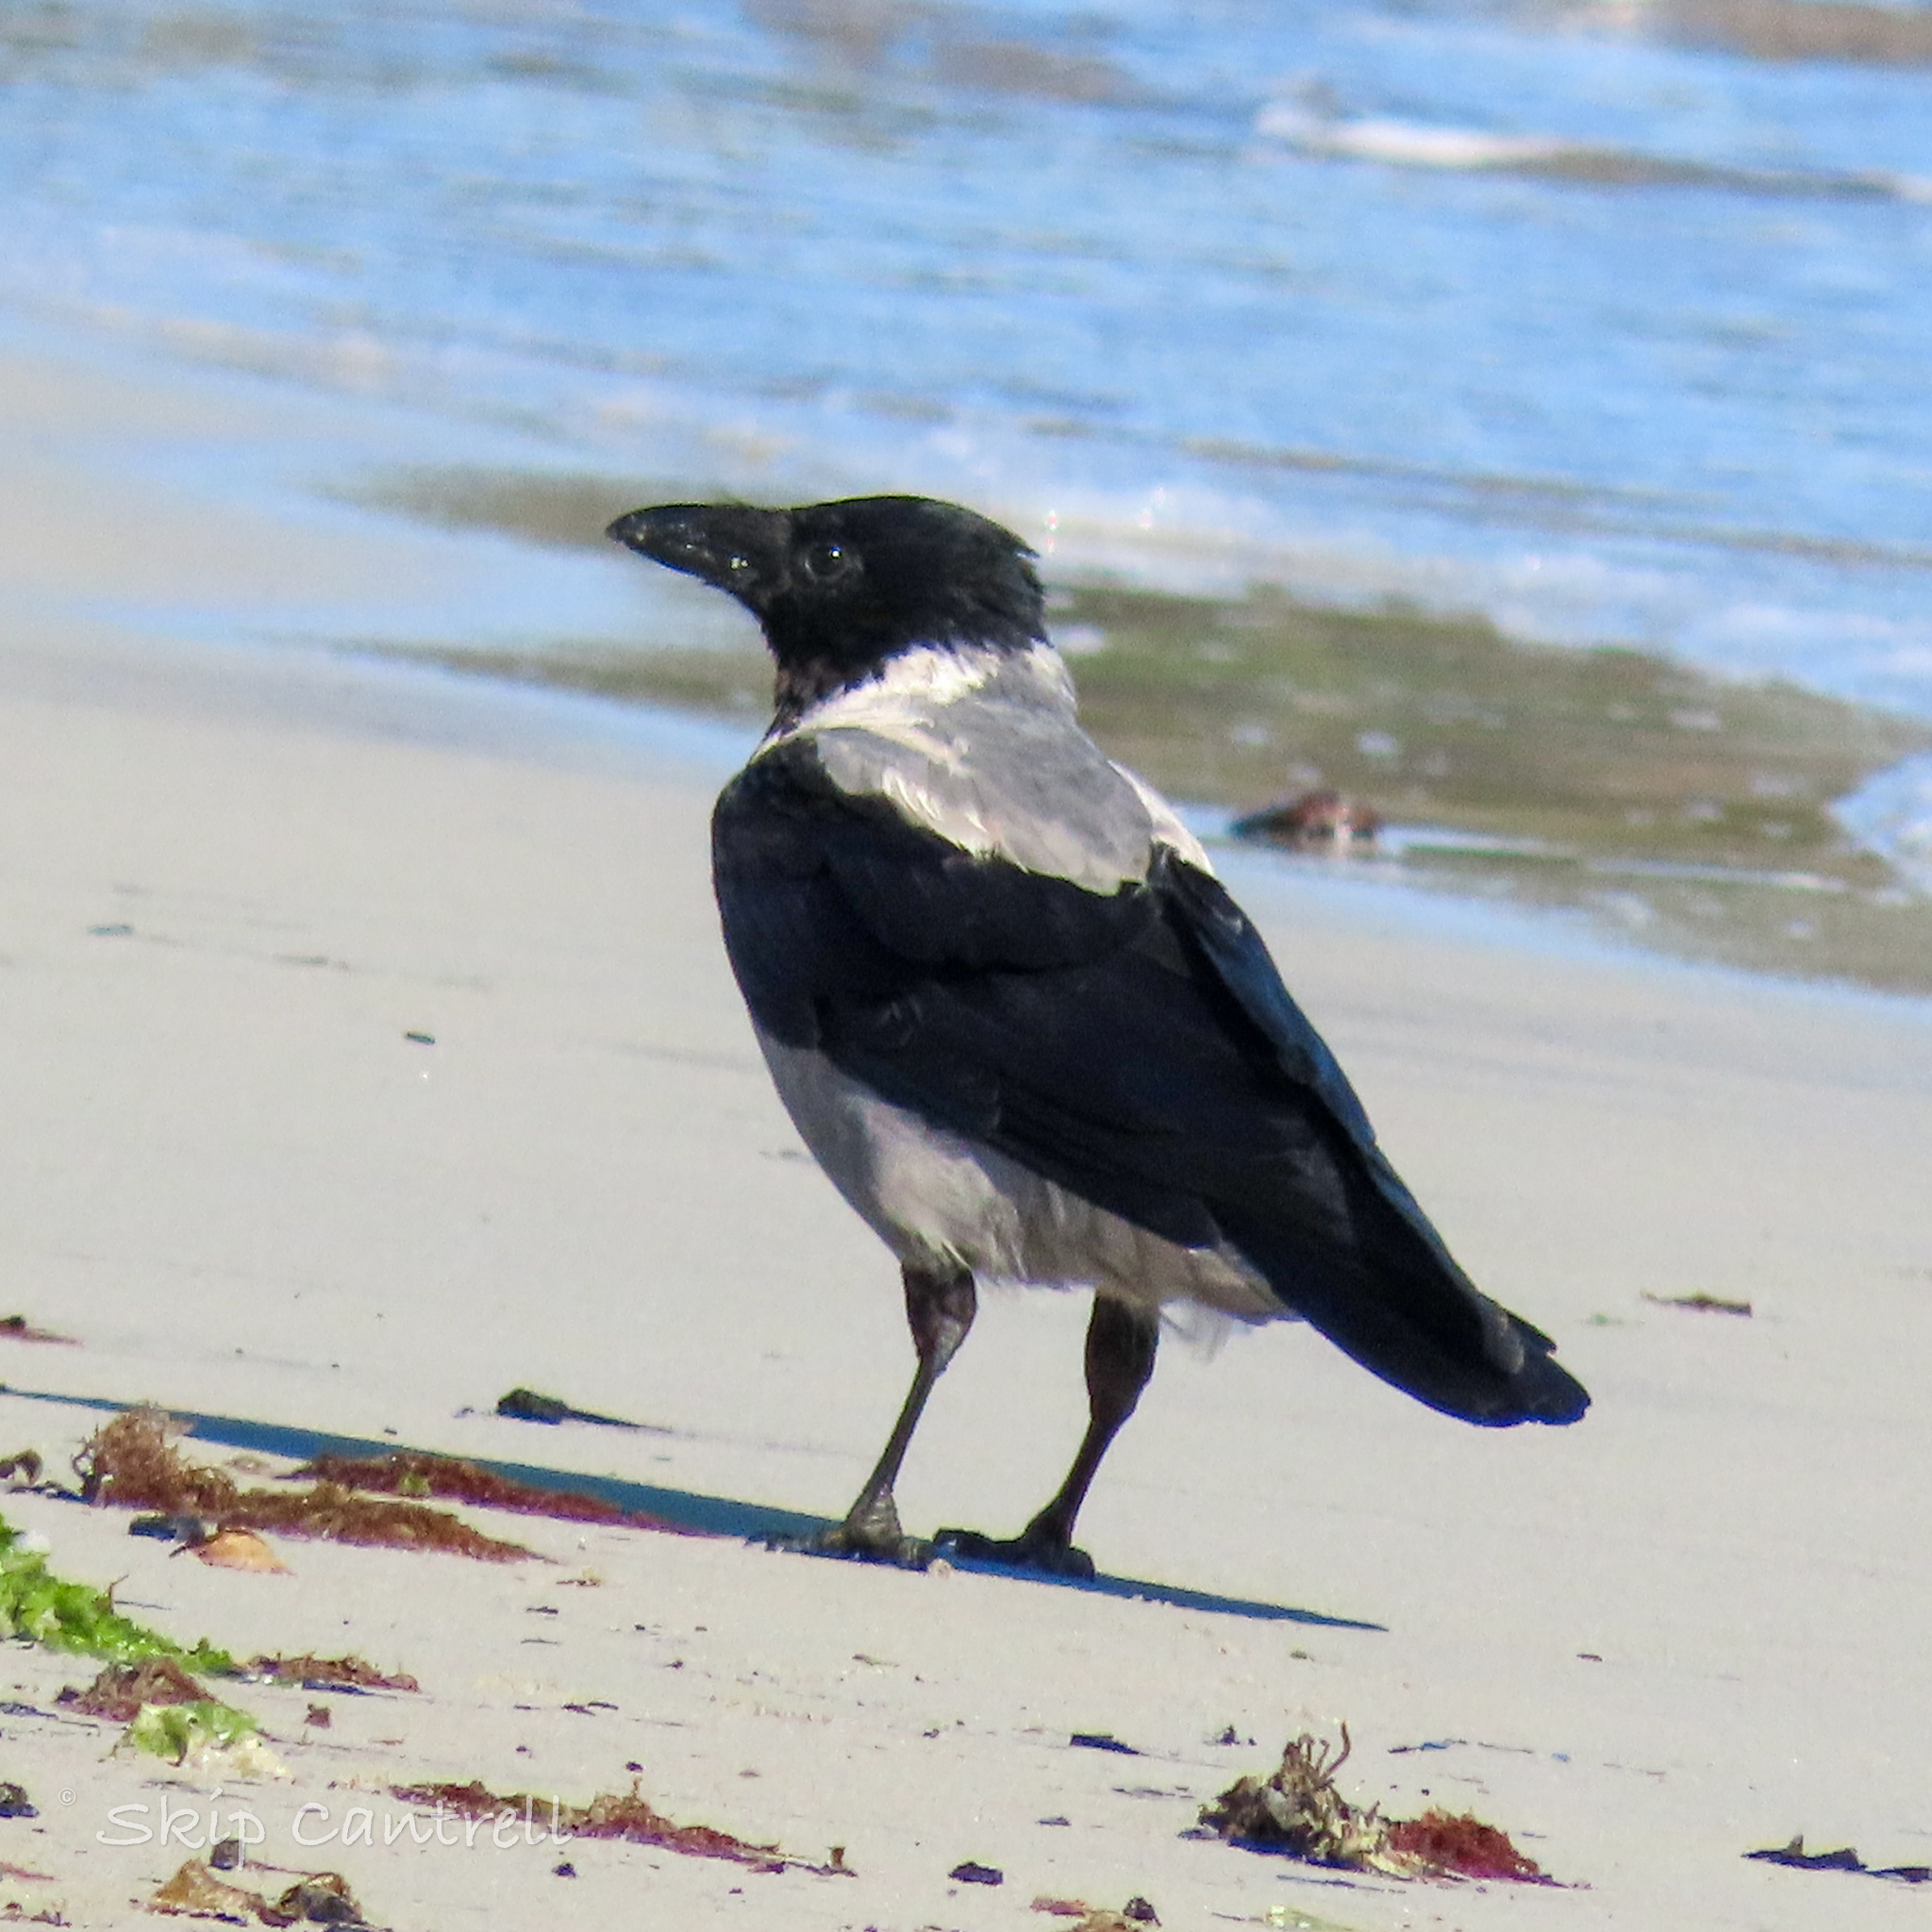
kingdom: Animalia
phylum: Chordata
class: Aves
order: Passeriformes
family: Corvidae
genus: Corvus
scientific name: Corvus cornix
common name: Hooded crow
